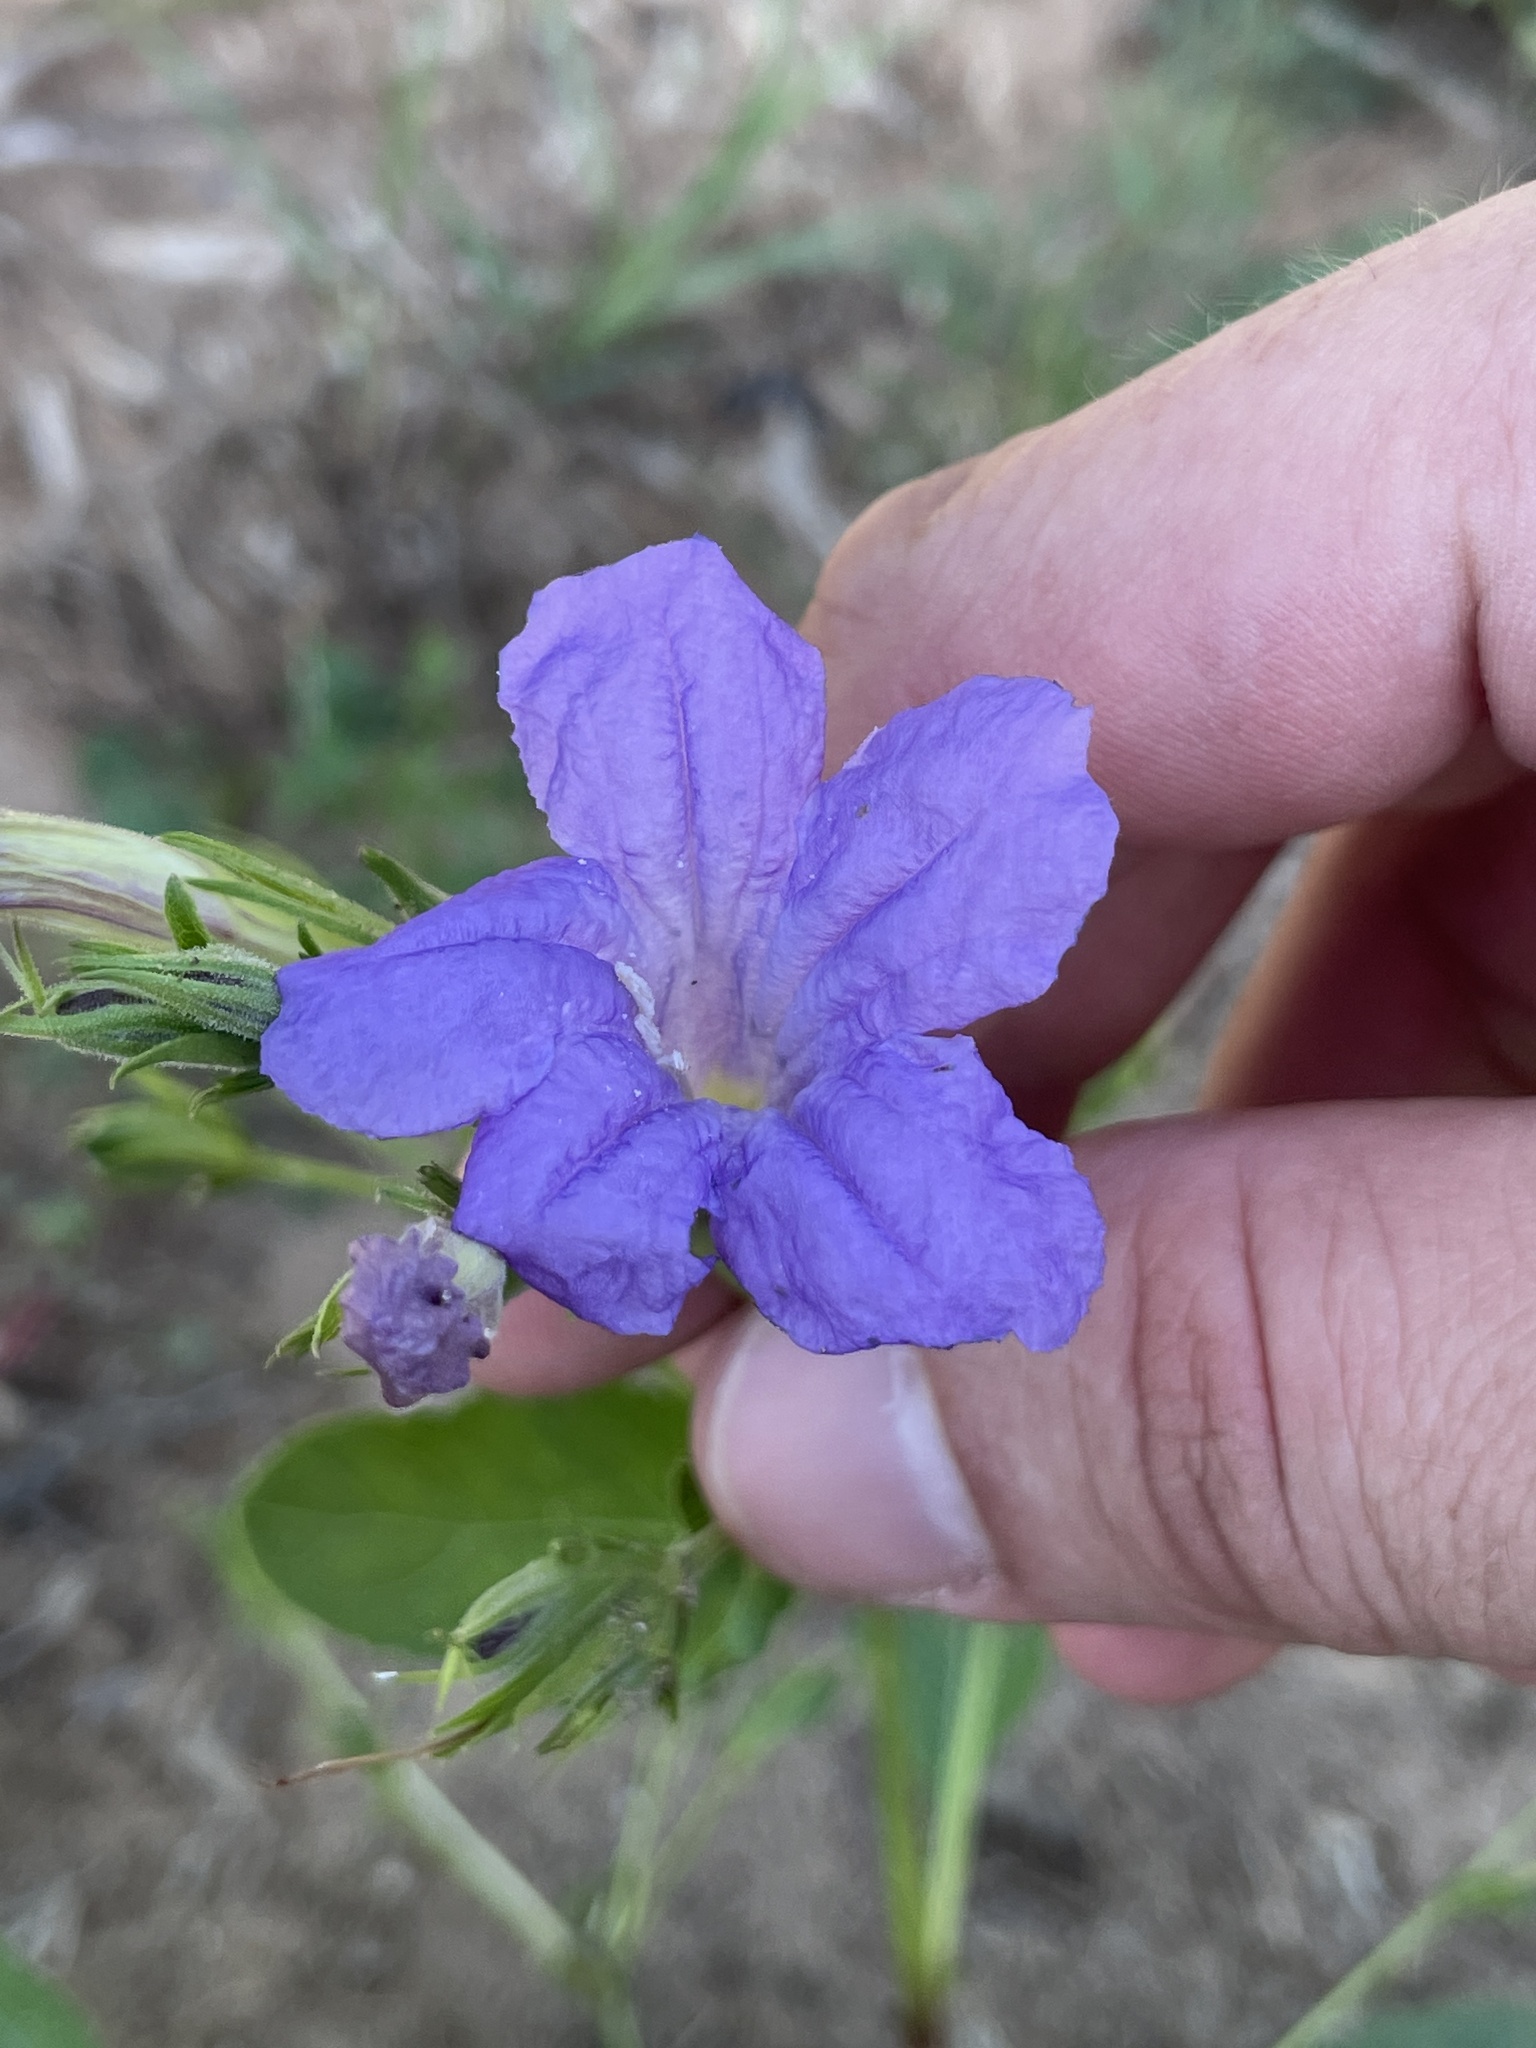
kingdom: Plantae
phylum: Tracheophyta
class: Magnoliopsida
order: Lamiales
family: Acanthaceae
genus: Ruellia
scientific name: Ruellia ciliatiflora
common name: Hairyflower wild petunia
